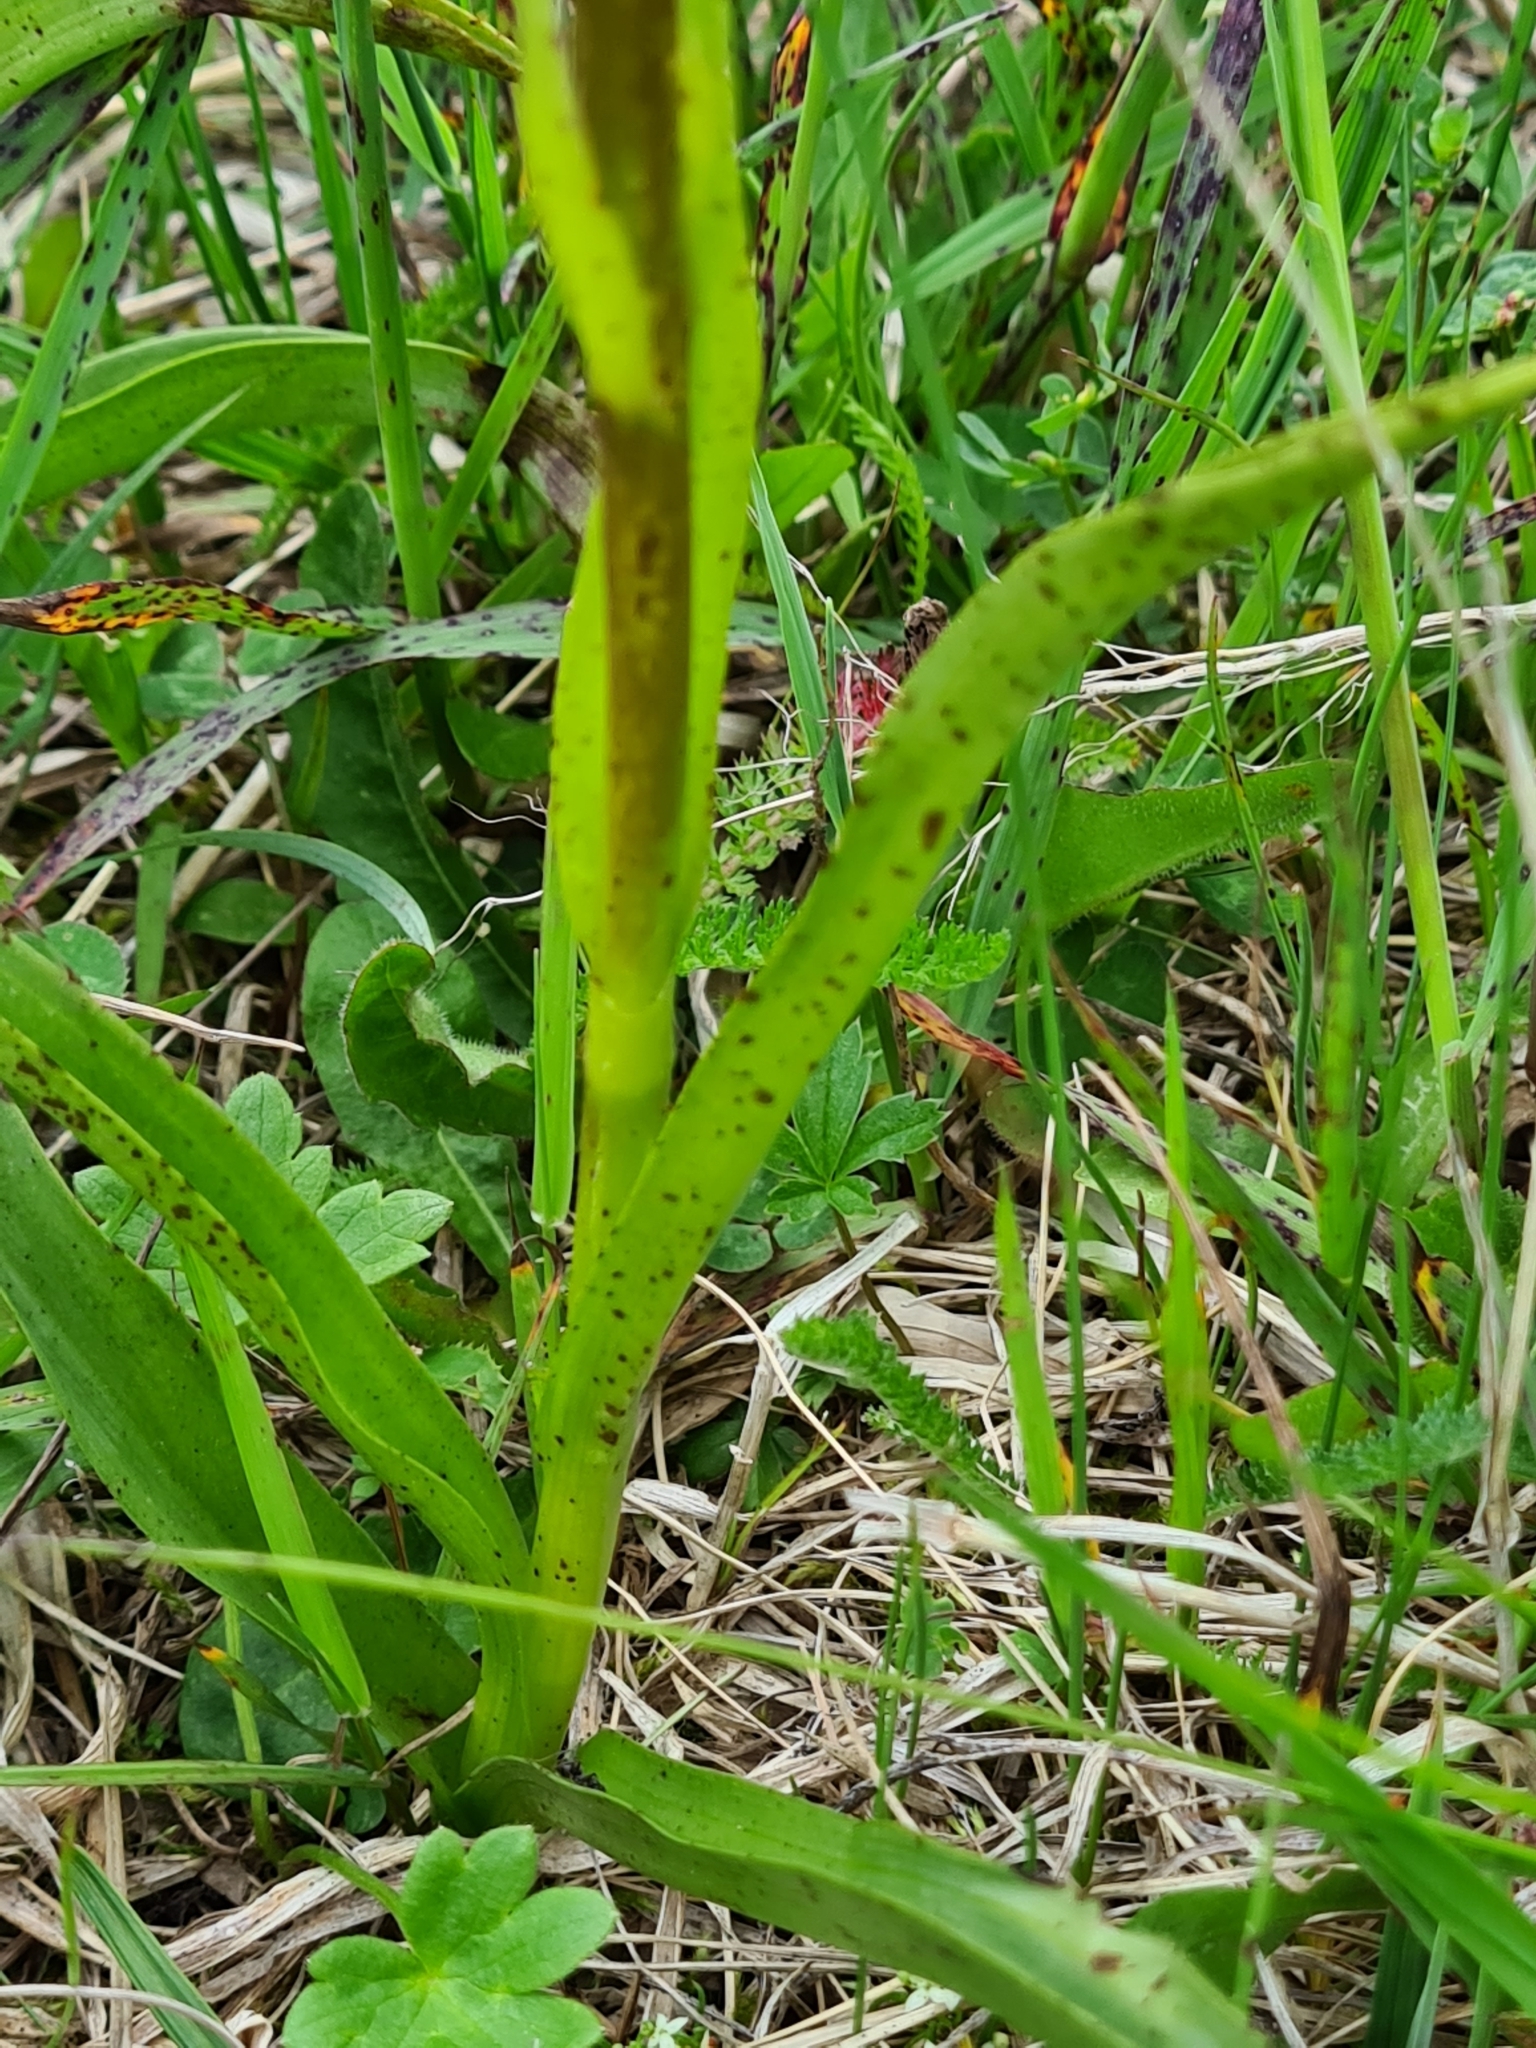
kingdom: Plantae
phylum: Tracheophyta
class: Liliopsida
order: Asparagales
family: Orchidaceae
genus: Gymnadenia
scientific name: Gymnadenia conopsea
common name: Fragrant orchid
